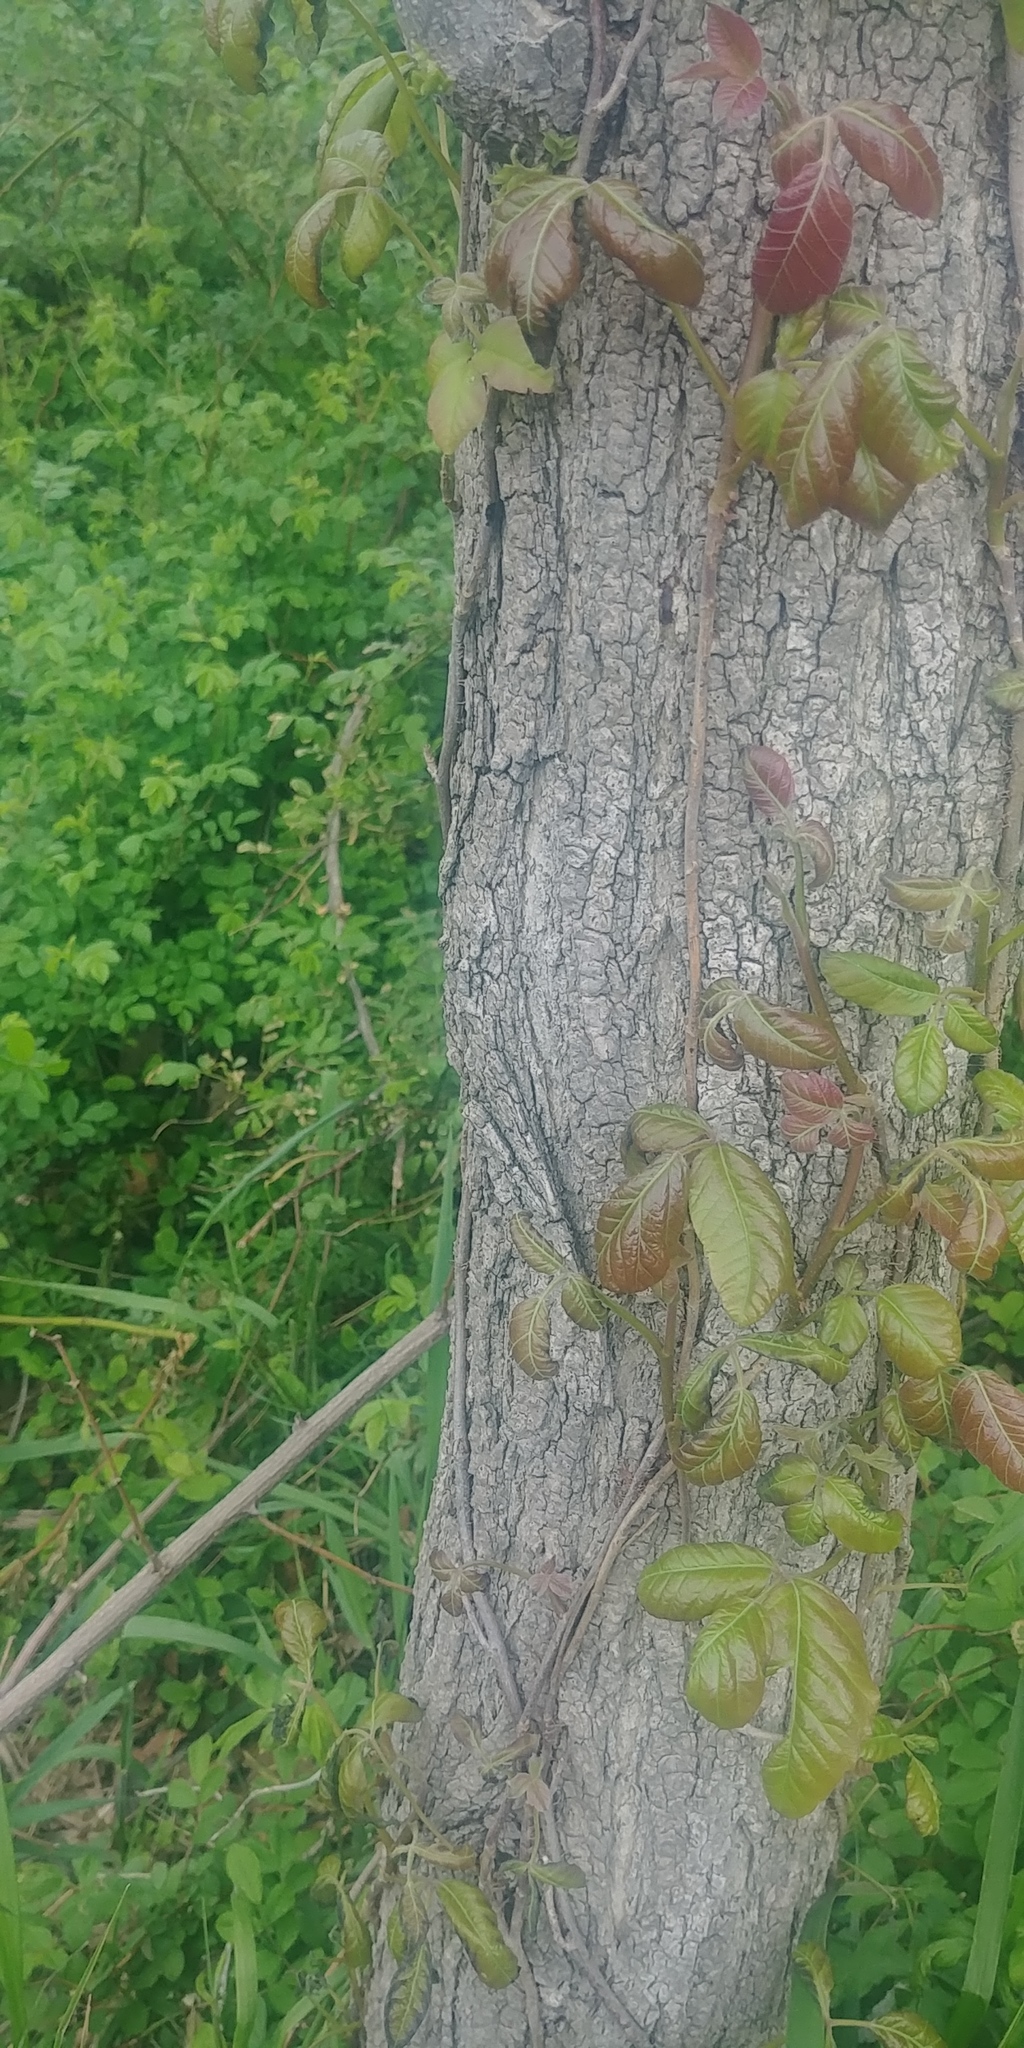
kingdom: Plantae
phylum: Tracheophyta
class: Magnoliopsida
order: Sapindales
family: Anacardiaceae
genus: Toxicodendron
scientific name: Toxicodendron radicans
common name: Poison ivy
